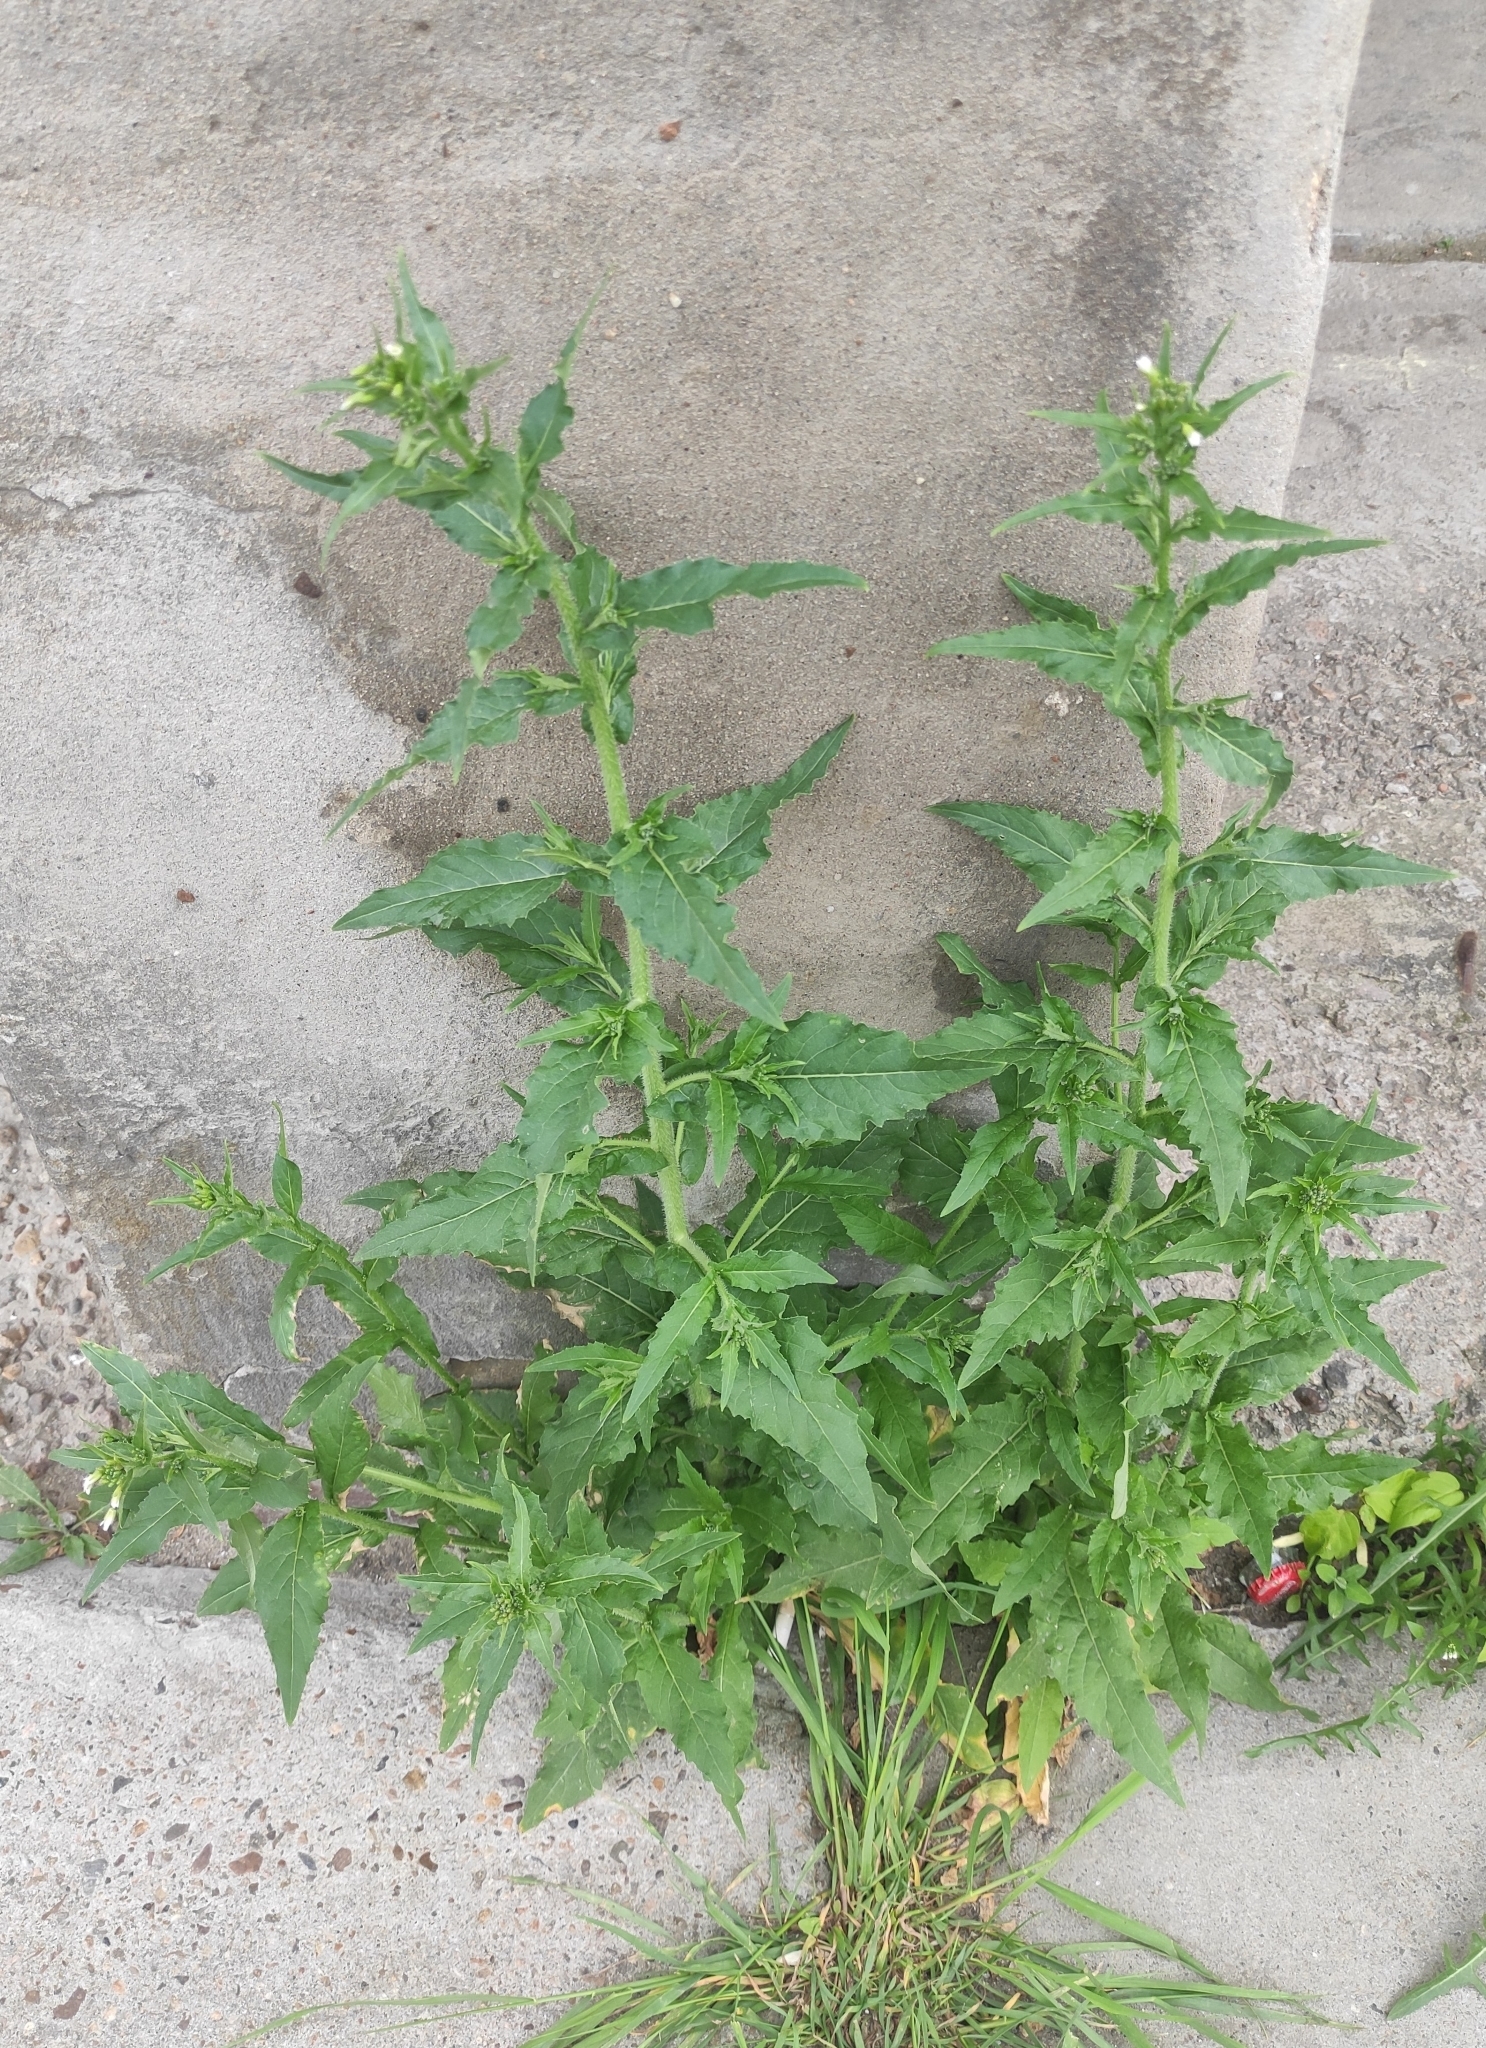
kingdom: Plantae
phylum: Tracheophyta
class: Magnoliopsida
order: Brassicales
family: Brassicaceae
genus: Catolobus
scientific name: Catolobus pendulus
